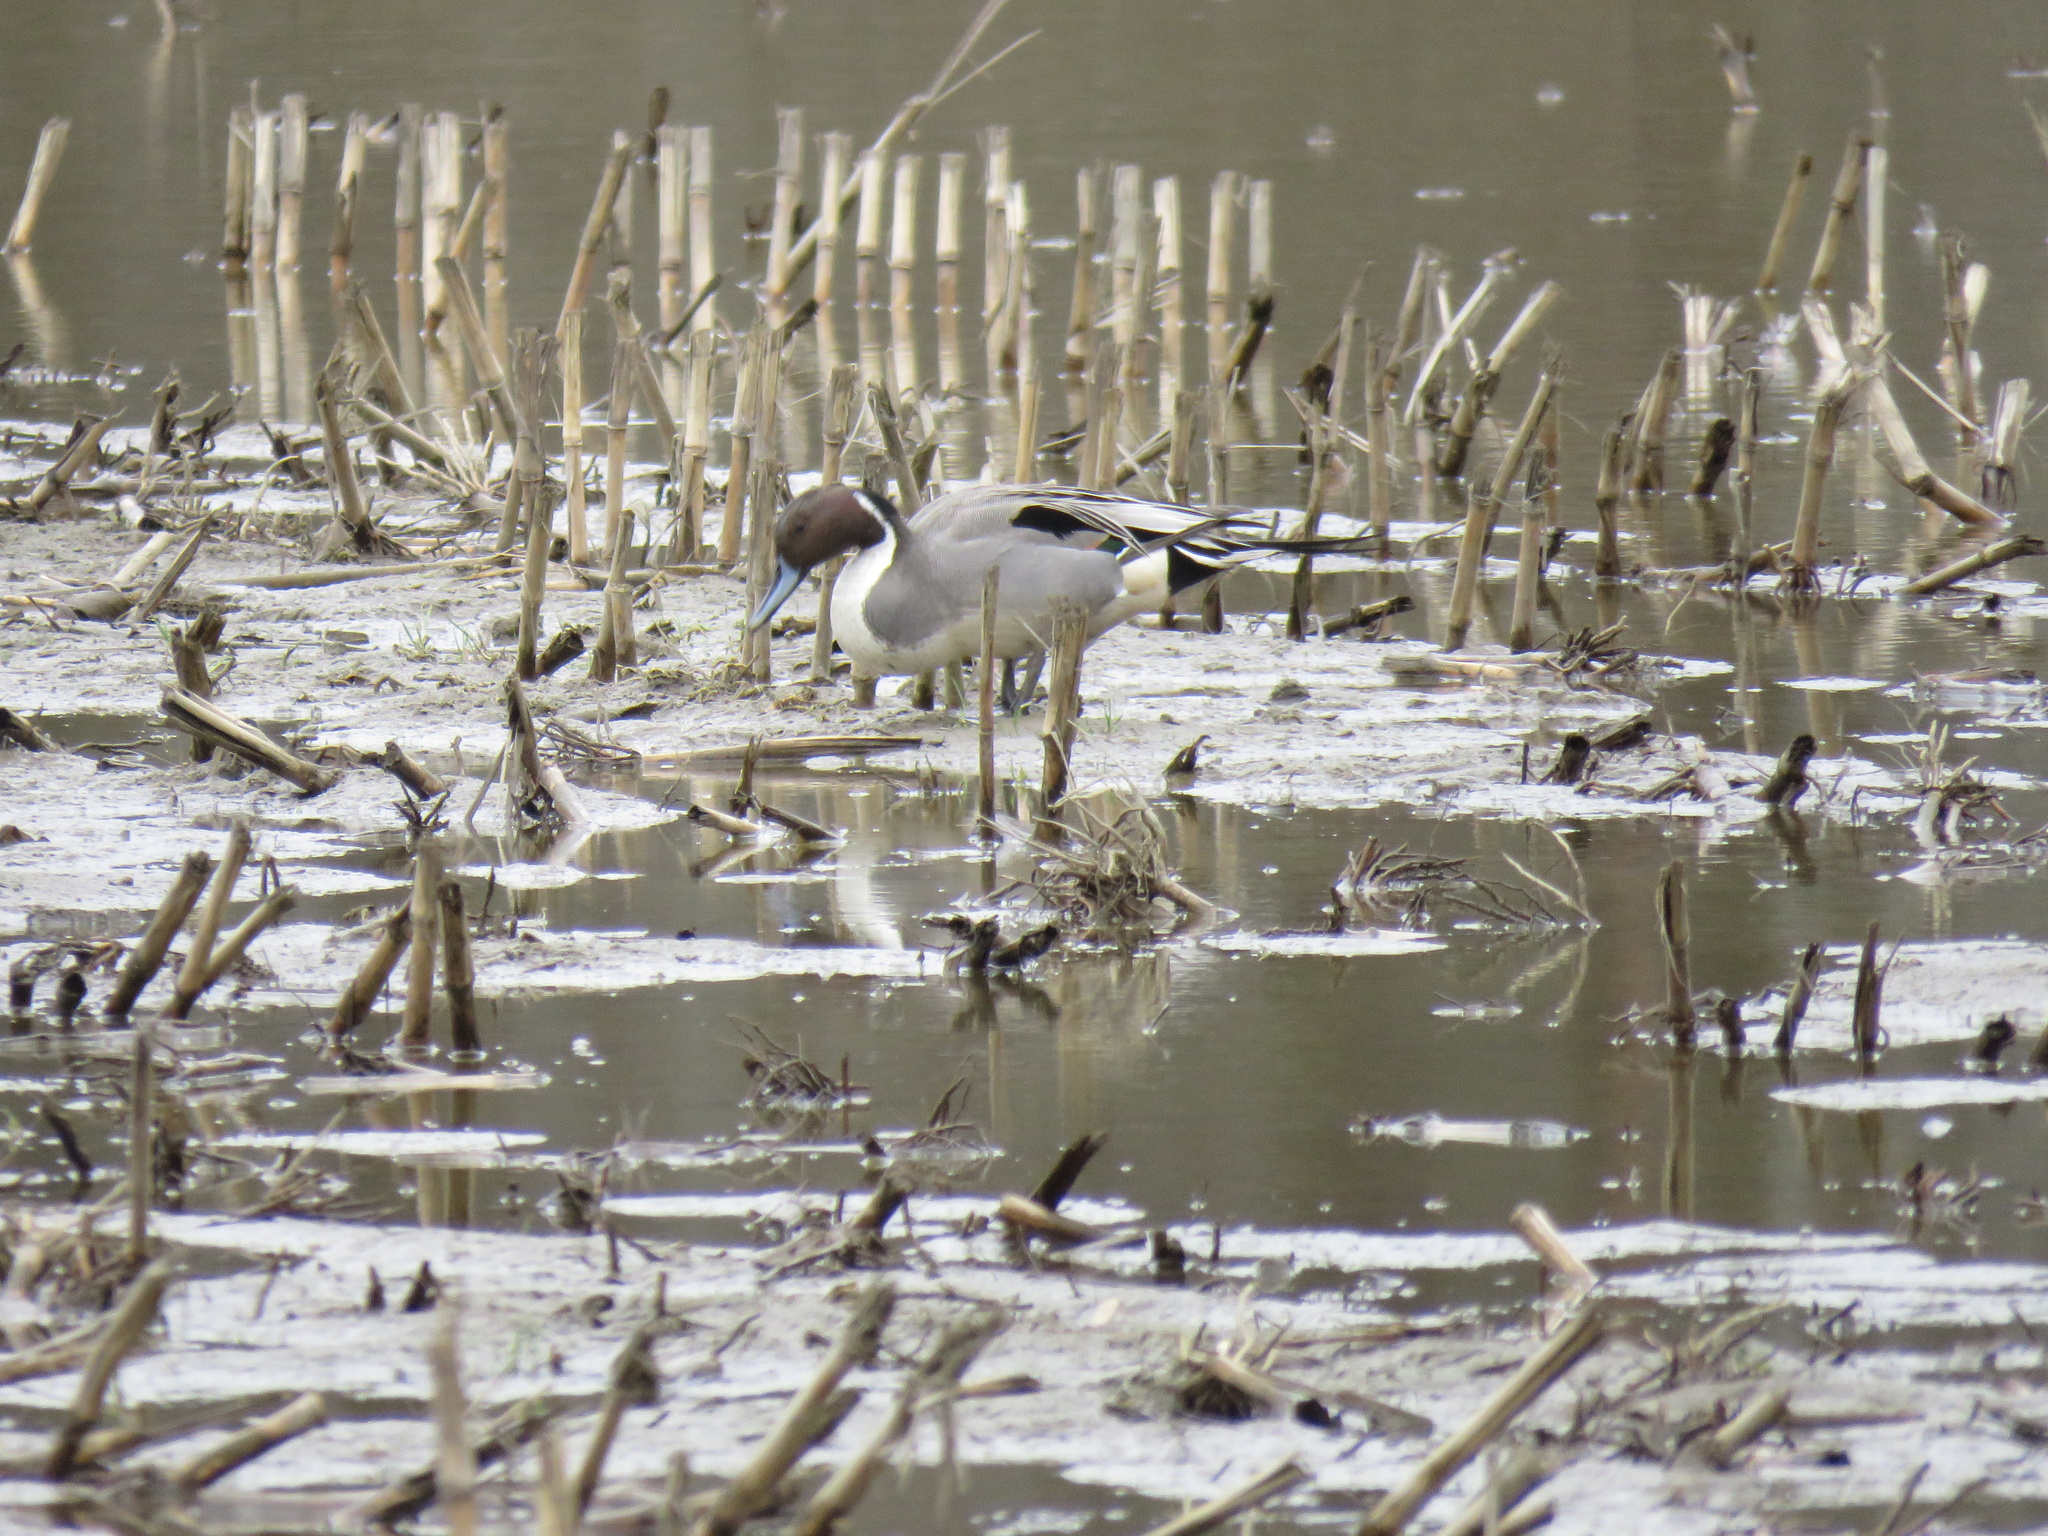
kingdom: Animalia
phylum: Chordata
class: Aves
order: Anseriformes
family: Anatidae
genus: Anas
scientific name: Anas acuta
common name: Northern pintail
